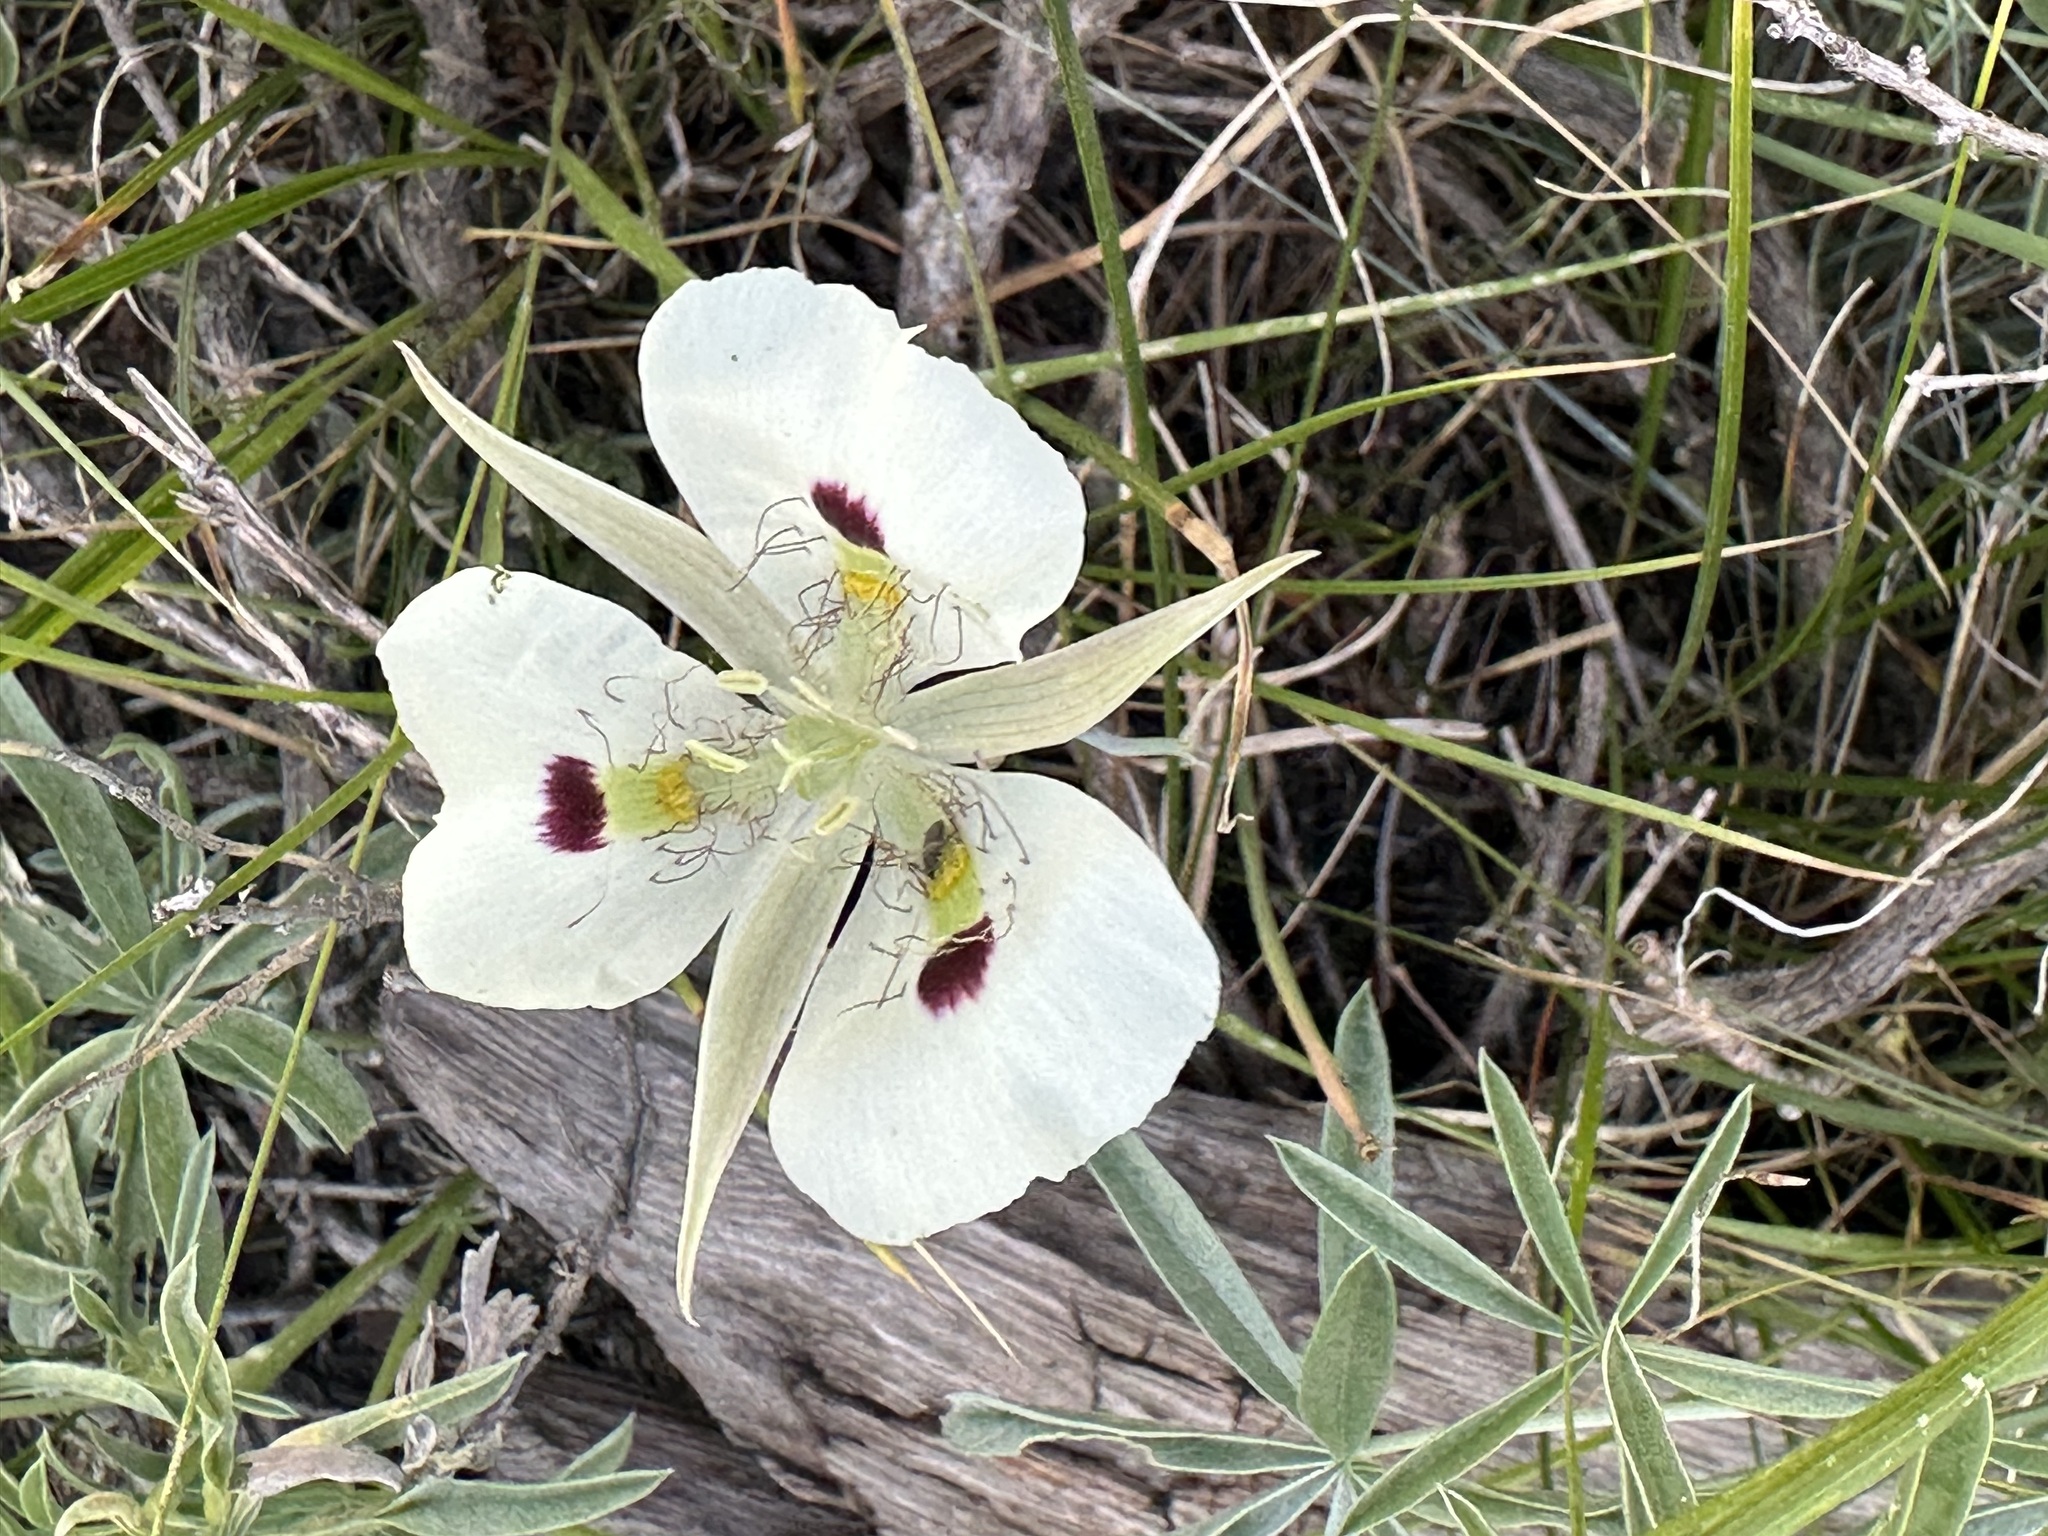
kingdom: Plantae
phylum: Tracheophyta
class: Liliopsida
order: Liliales
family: Liliaceae
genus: Calochortus
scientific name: Calochortus eurycarpus
